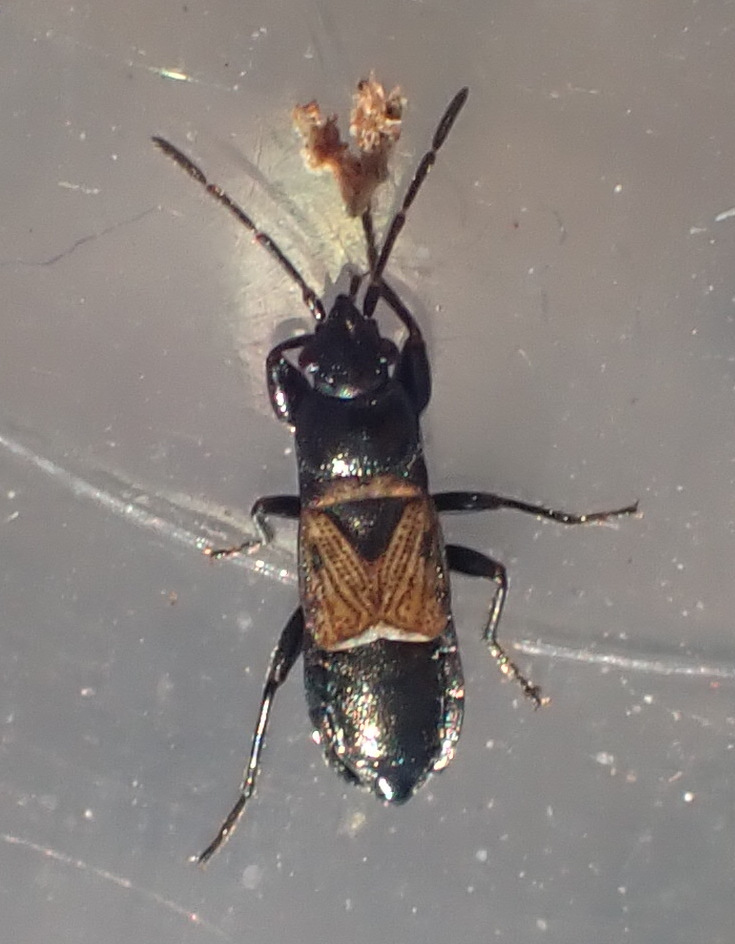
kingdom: Animalia
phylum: Arthropoda
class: Insecta
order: Hemiptera
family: Rhyparochromidae
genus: Macrodema
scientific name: Macrodema microptera
